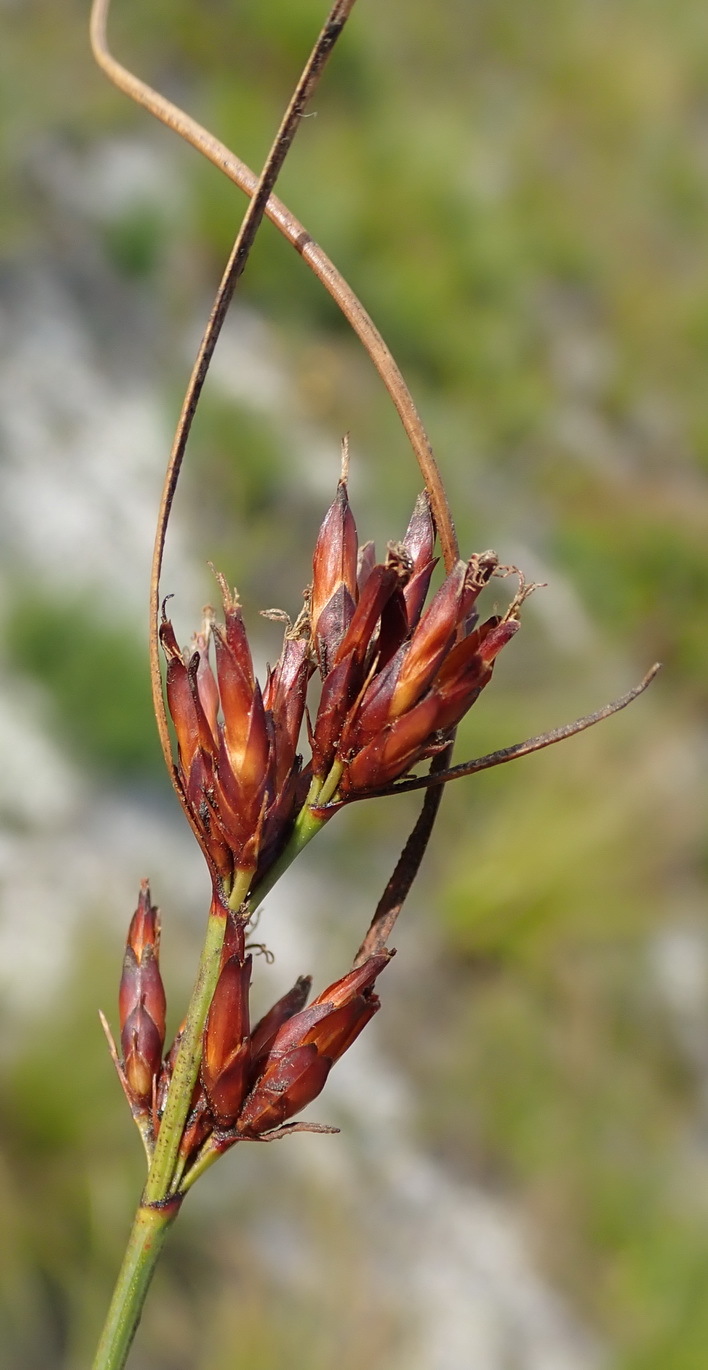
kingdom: Plantae
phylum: Tracheophyta
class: Liliopsida
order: Poales
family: Cyperaceae
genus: Schoenus
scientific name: Schoenus compar
